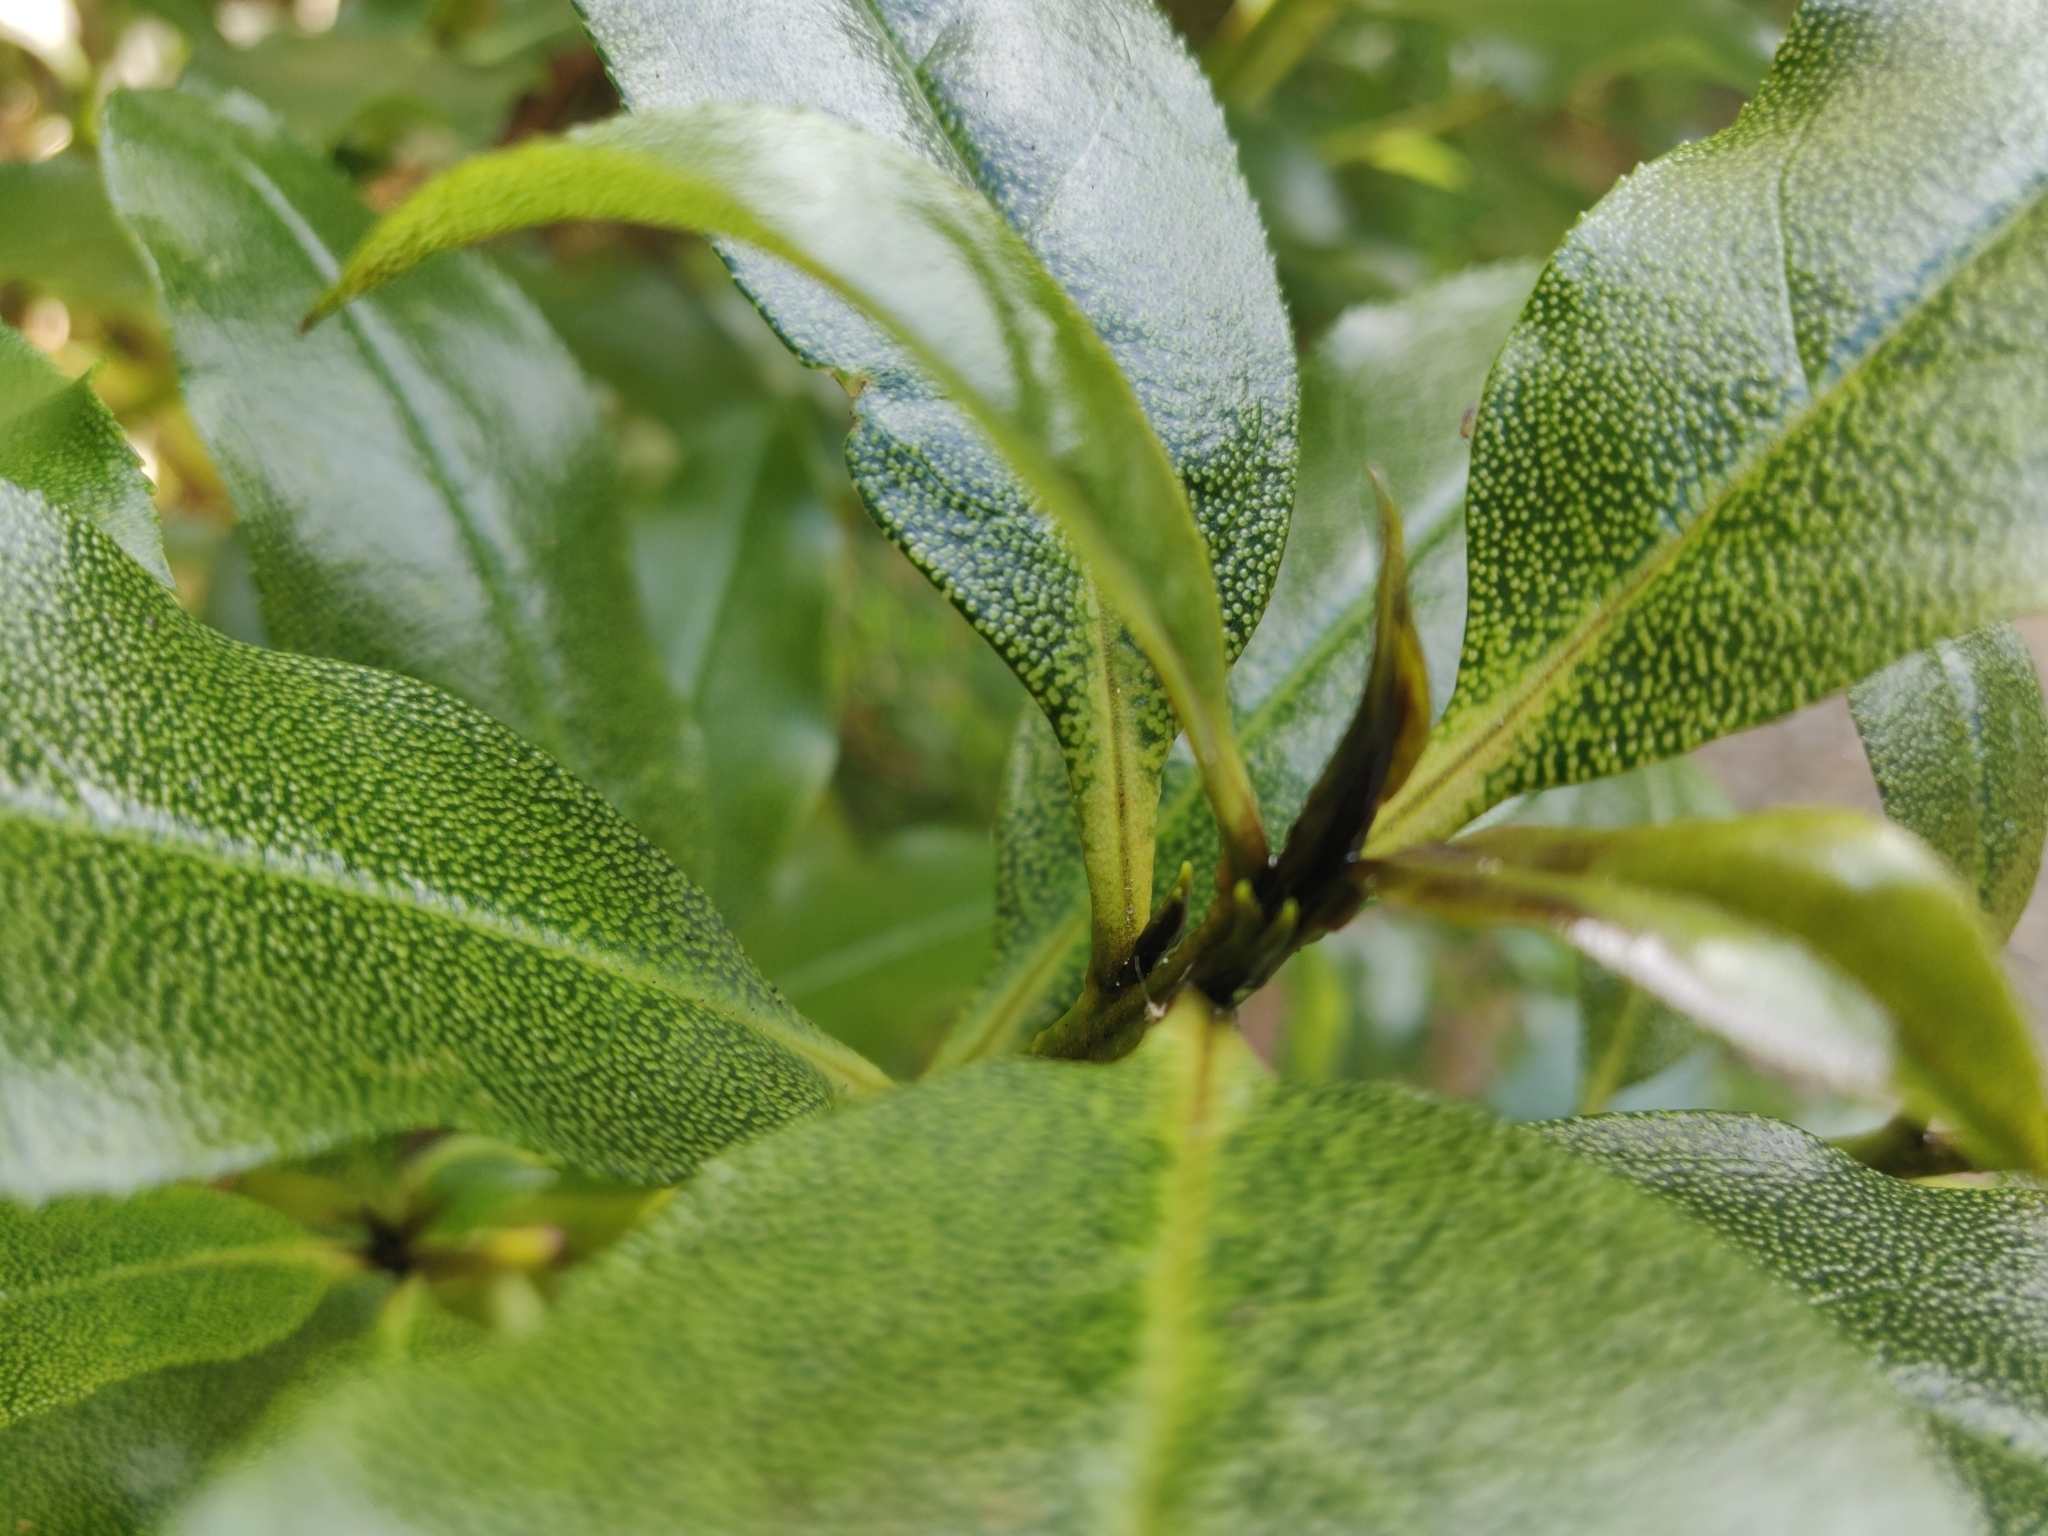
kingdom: Plantae
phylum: Tracheophyta
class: Magnoliopsida
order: Lamiales
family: Scrophulariaceae
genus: Myoporum
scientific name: Myoporum laetum
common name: Ngaio tree
